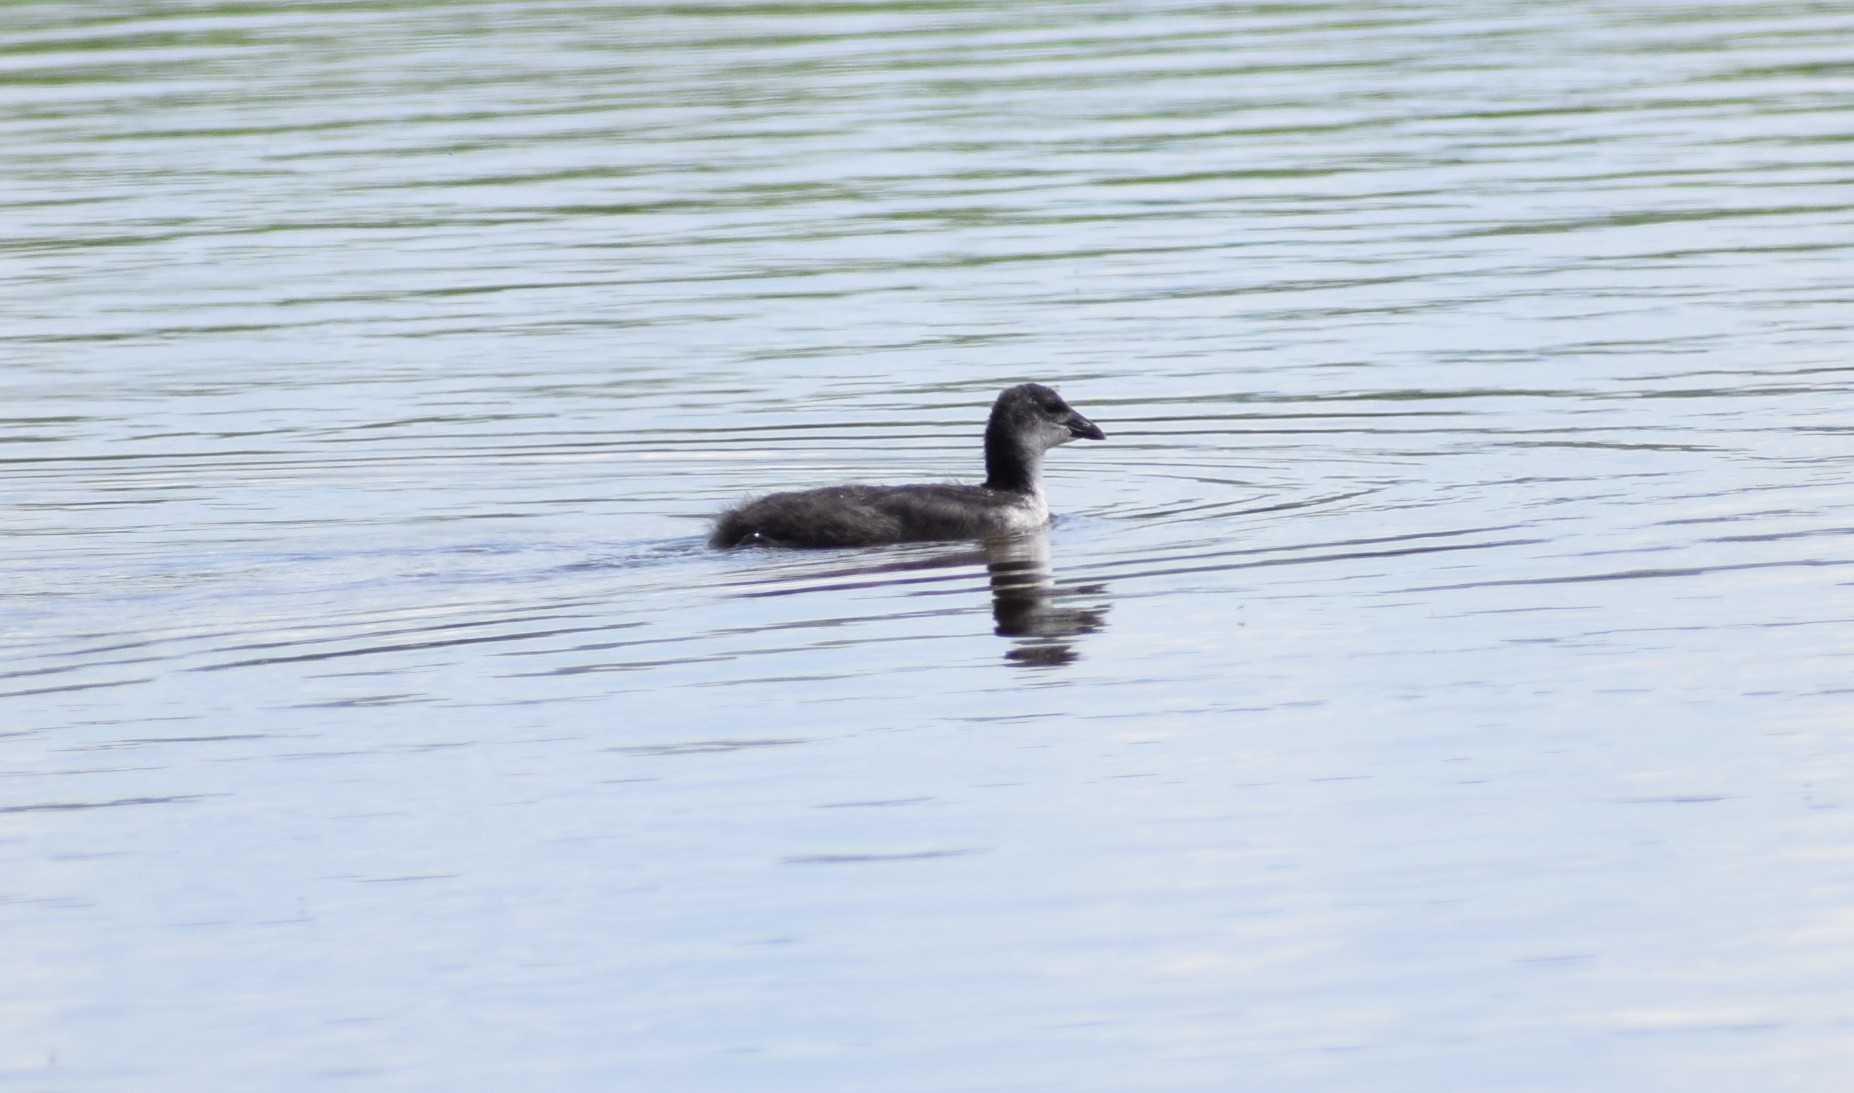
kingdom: Animalia
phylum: Chordata
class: Aves
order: Gruiformes
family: Rallidae
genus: Fulica
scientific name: Fulica atra
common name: Eurasian coot
